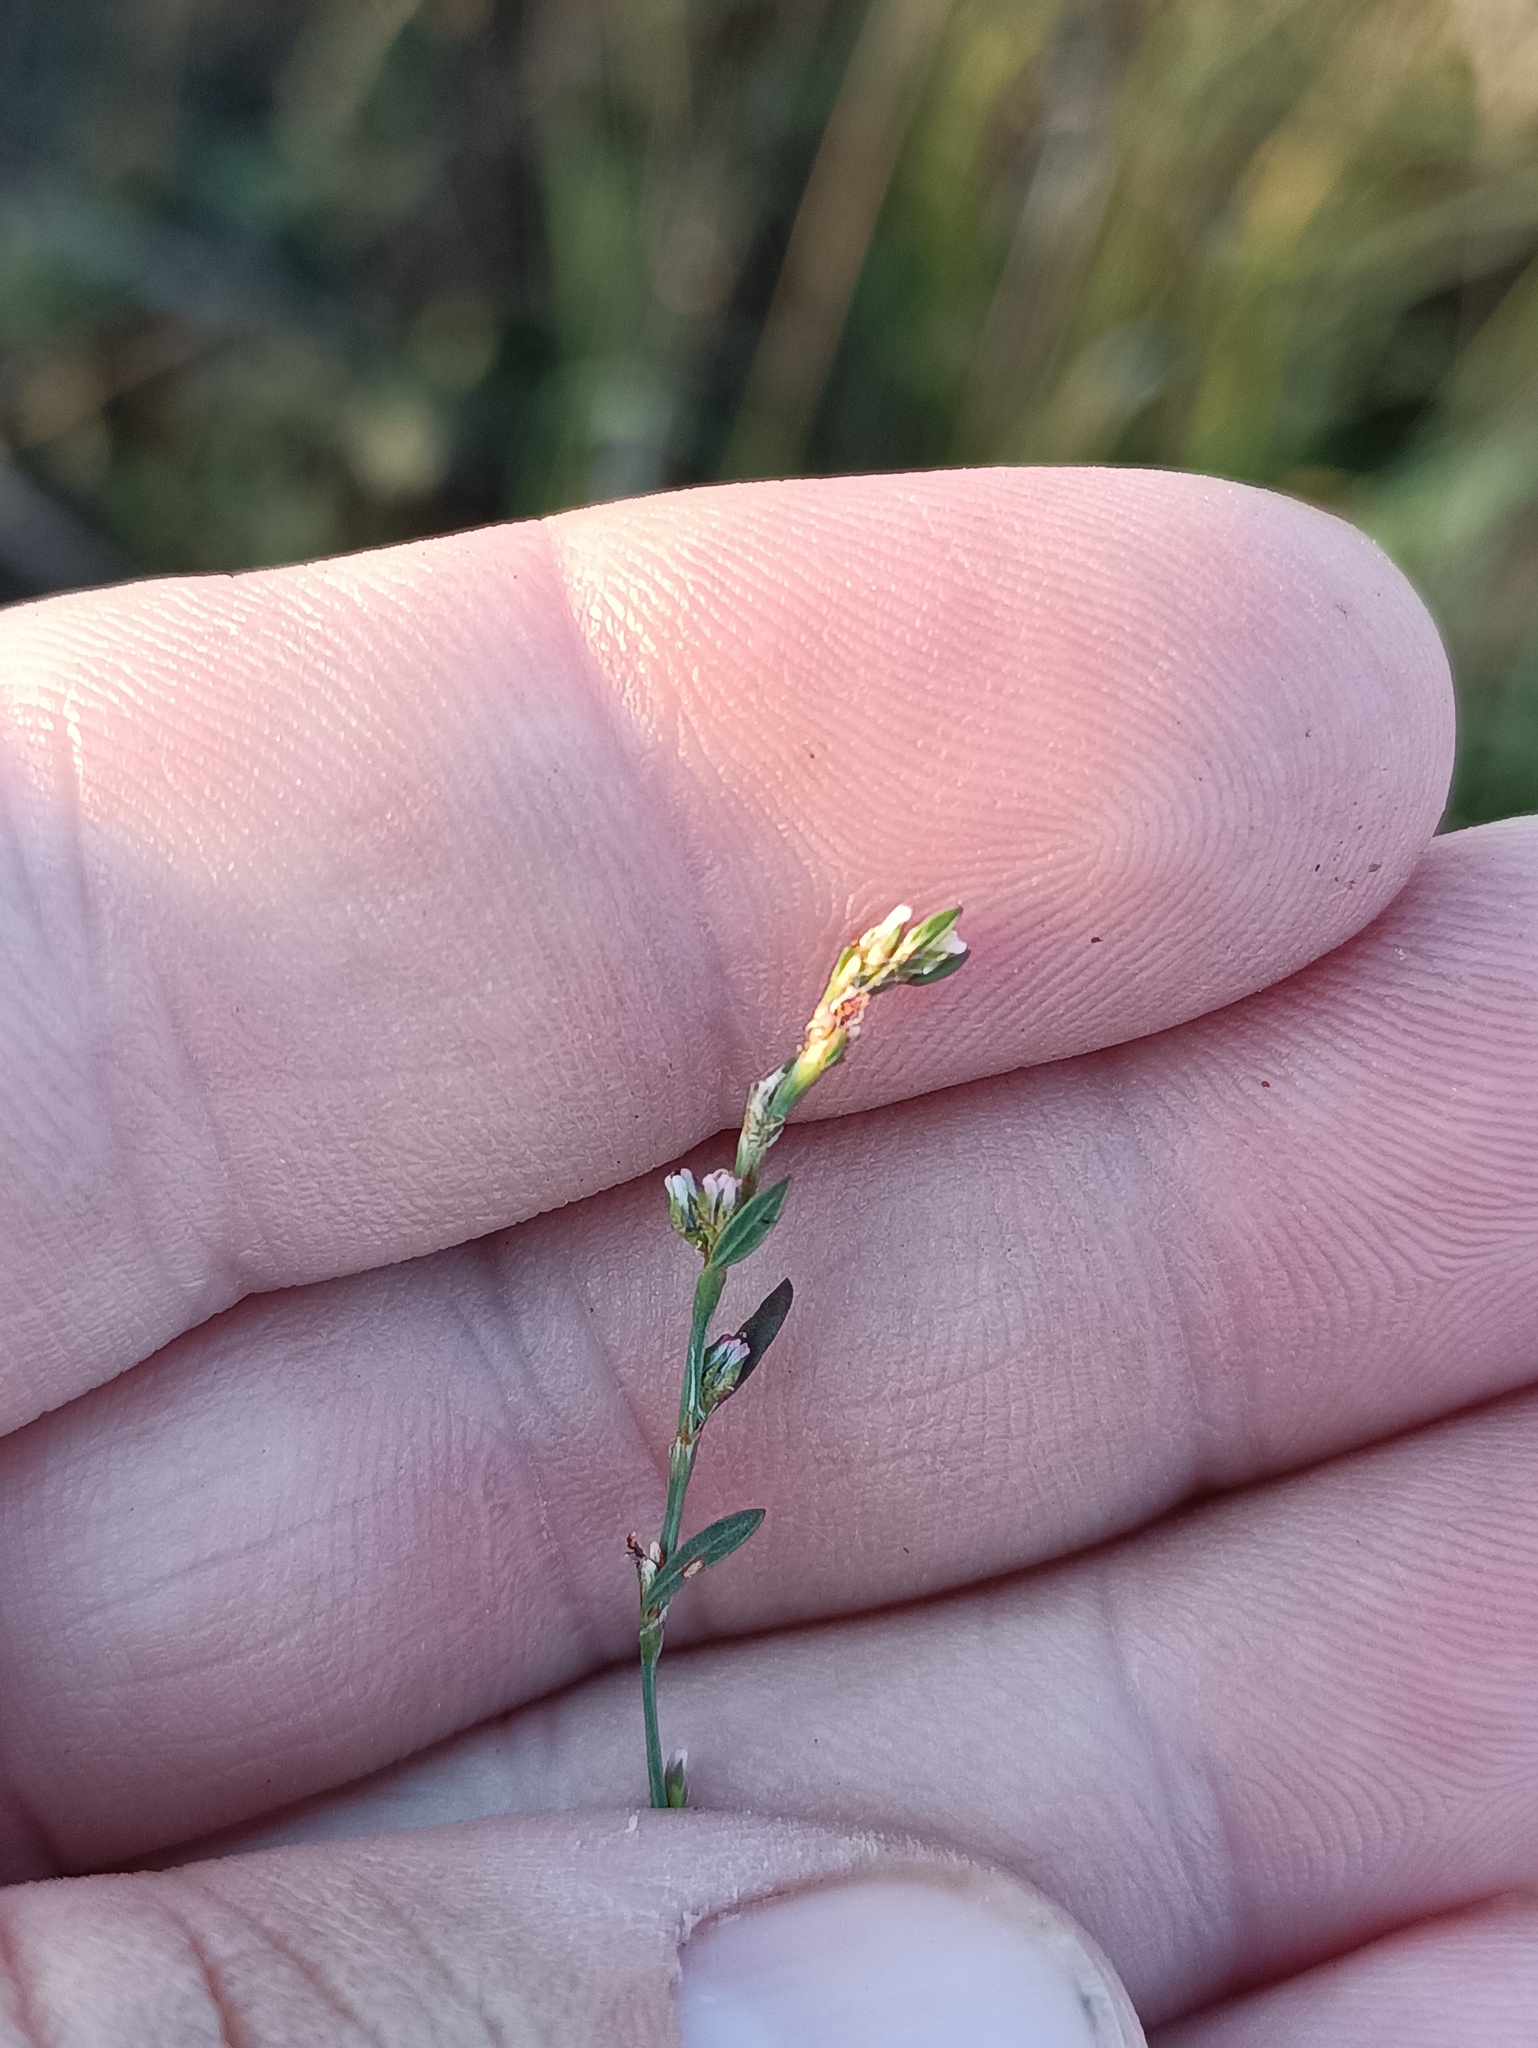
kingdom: Plantae
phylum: Tracheophyta
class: Magnoliopsida
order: Caryophyllales
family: Polygonaceae
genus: Polygonum
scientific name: Polygonum
